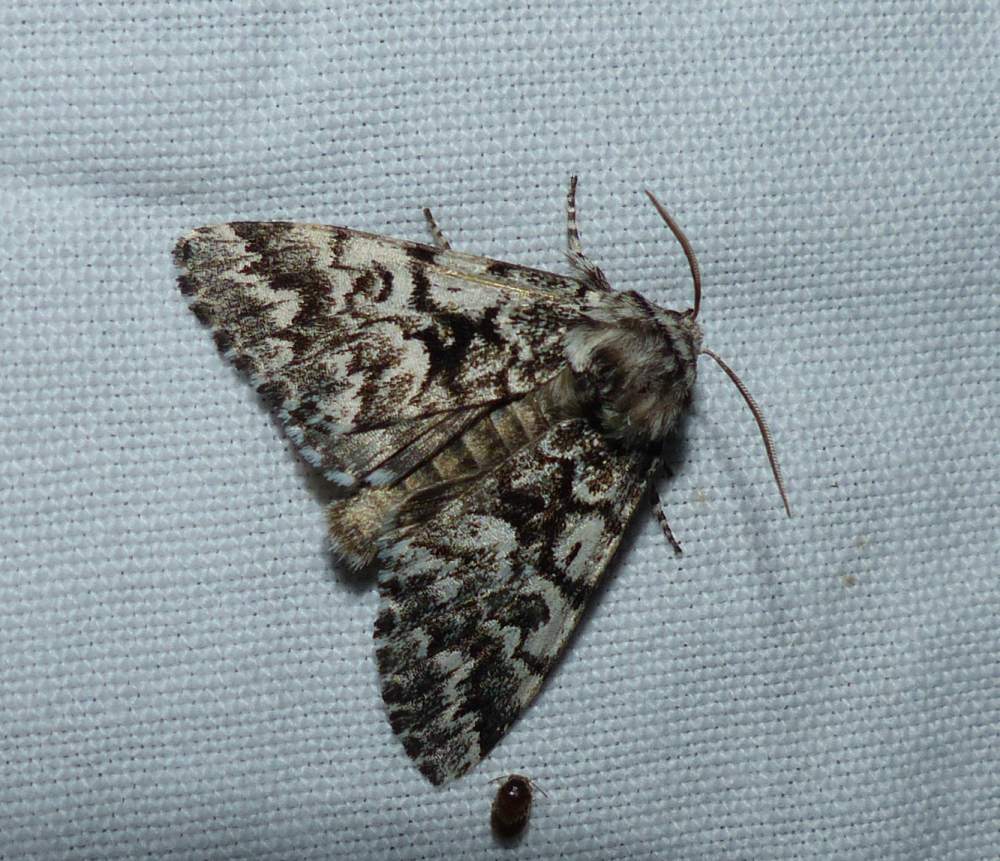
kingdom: Animalia
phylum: Arthropoda
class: Insecta
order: Lepidoptera
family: Noctuidae
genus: Panthea
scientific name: Panthea acronyctoides
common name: Black zigzag moth
